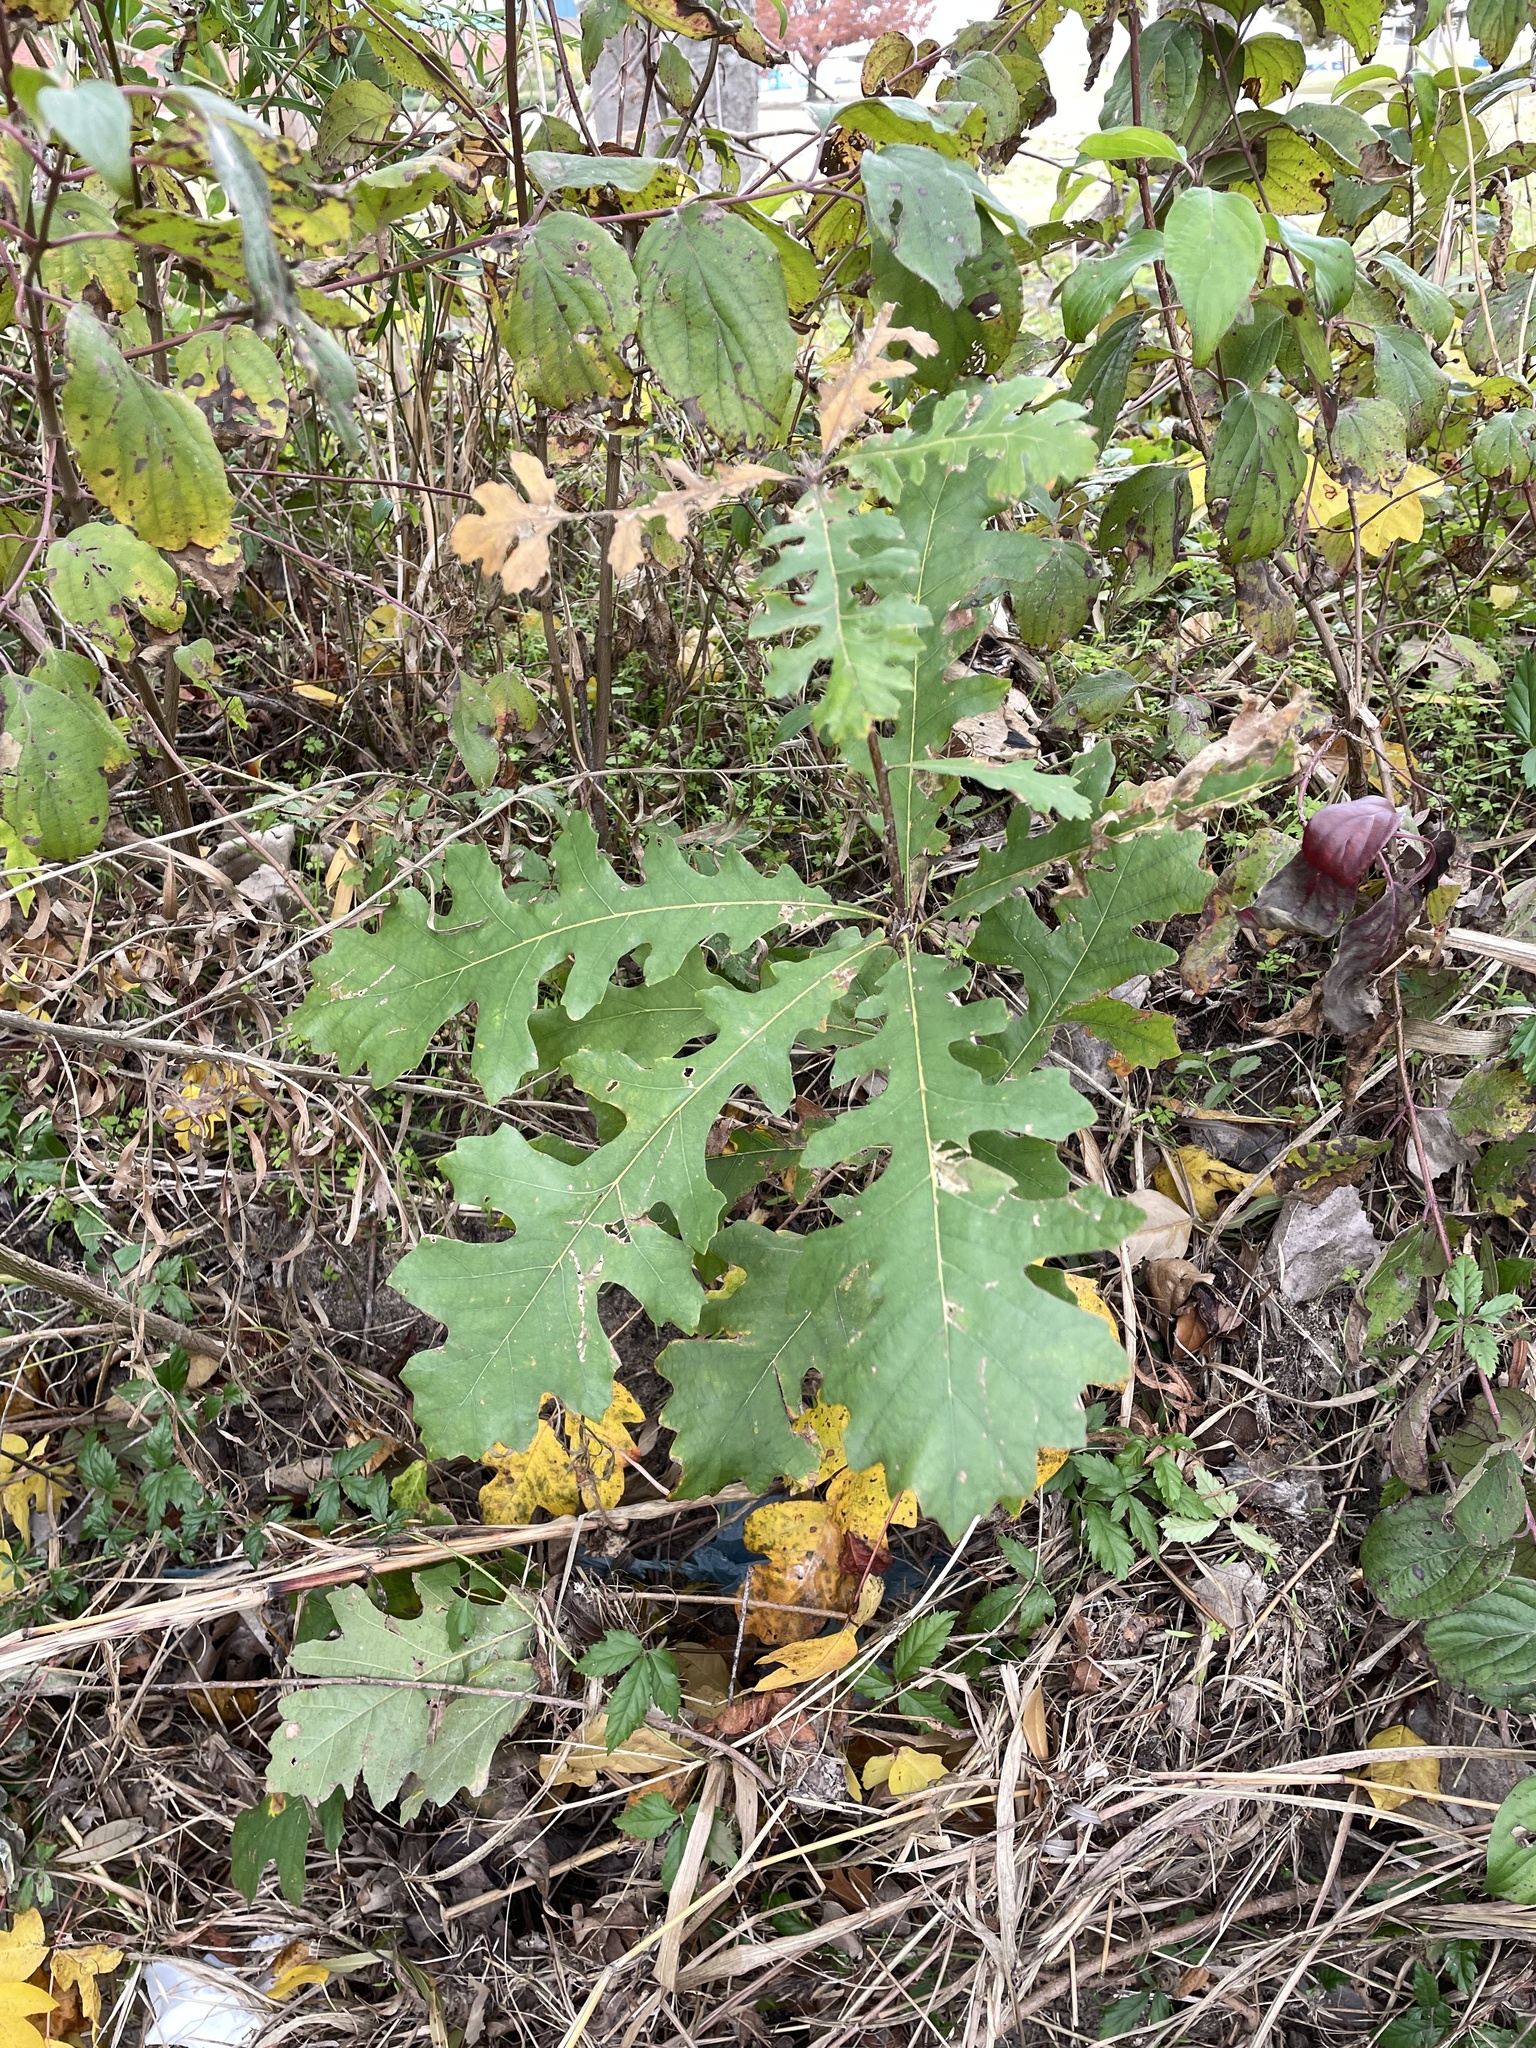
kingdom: Plantae
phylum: Tracheophyta
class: Magnoliopsida
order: Fagales
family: Fagaceae
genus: Quercus
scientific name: Quercus macrocarpa
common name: Bur oak
